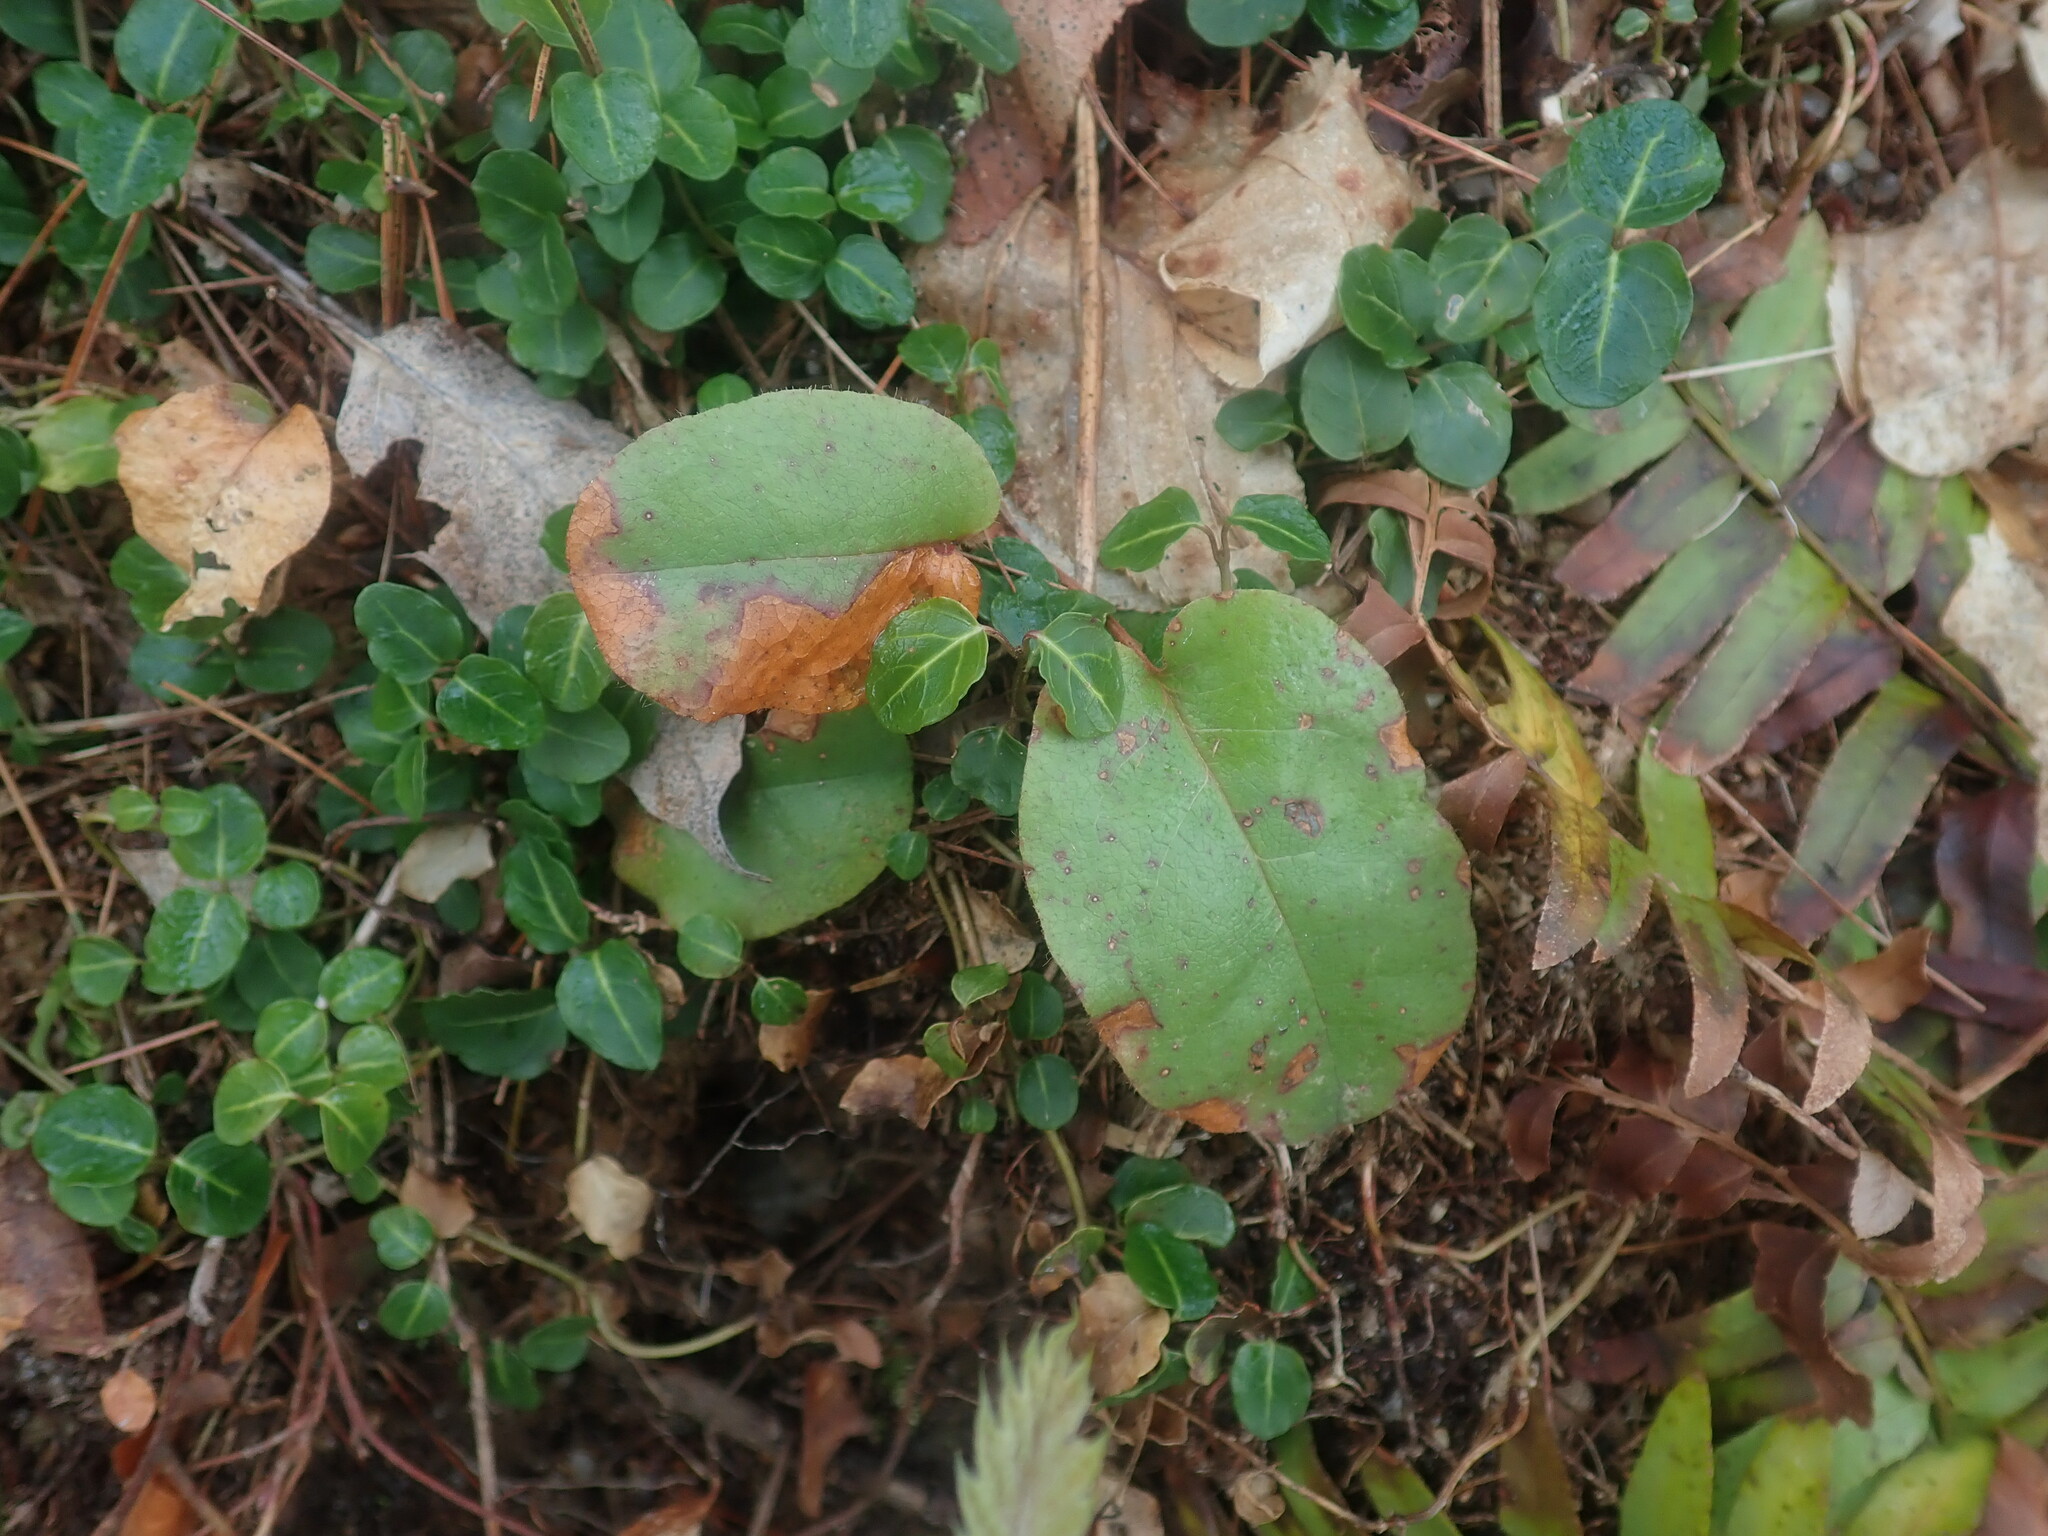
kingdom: Plantae
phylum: Tracheophyta
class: Magnoliopsida
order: Ericales
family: Ericaceae
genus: Epigaea
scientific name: Epigaea repens
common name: Gravelroot
